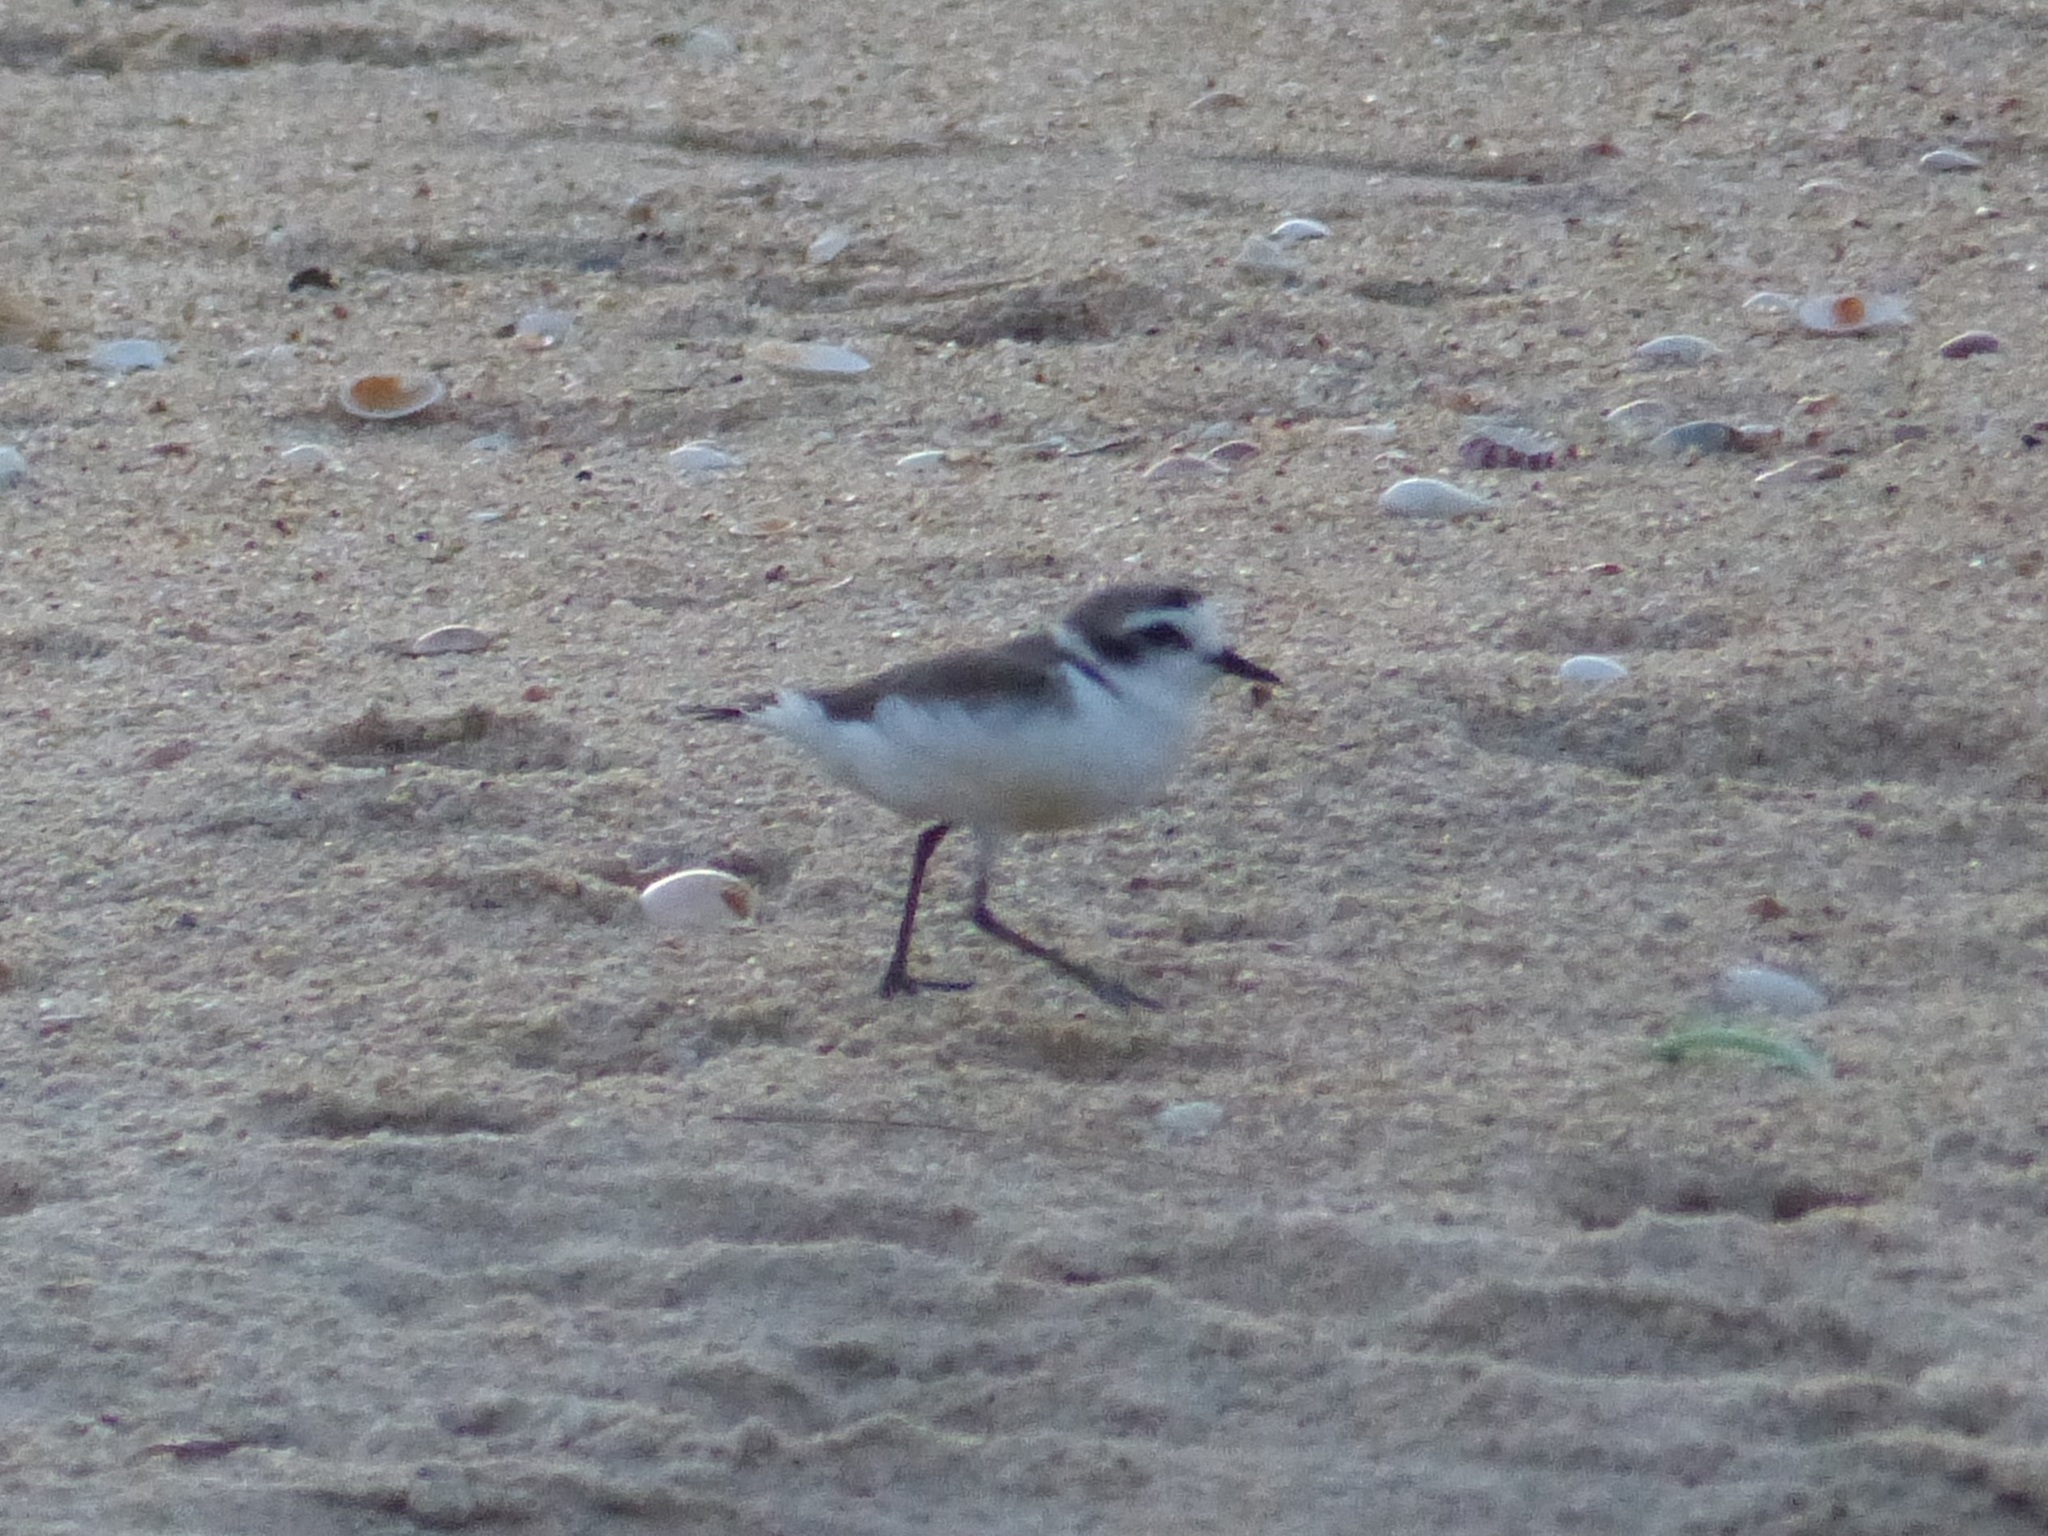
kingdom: Animalia
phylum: Chordata
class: Aves
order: Charadriiformes
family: Charadriidae
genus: Charadrius
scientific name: Charadrius alexandrinus
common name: Kentish plover
